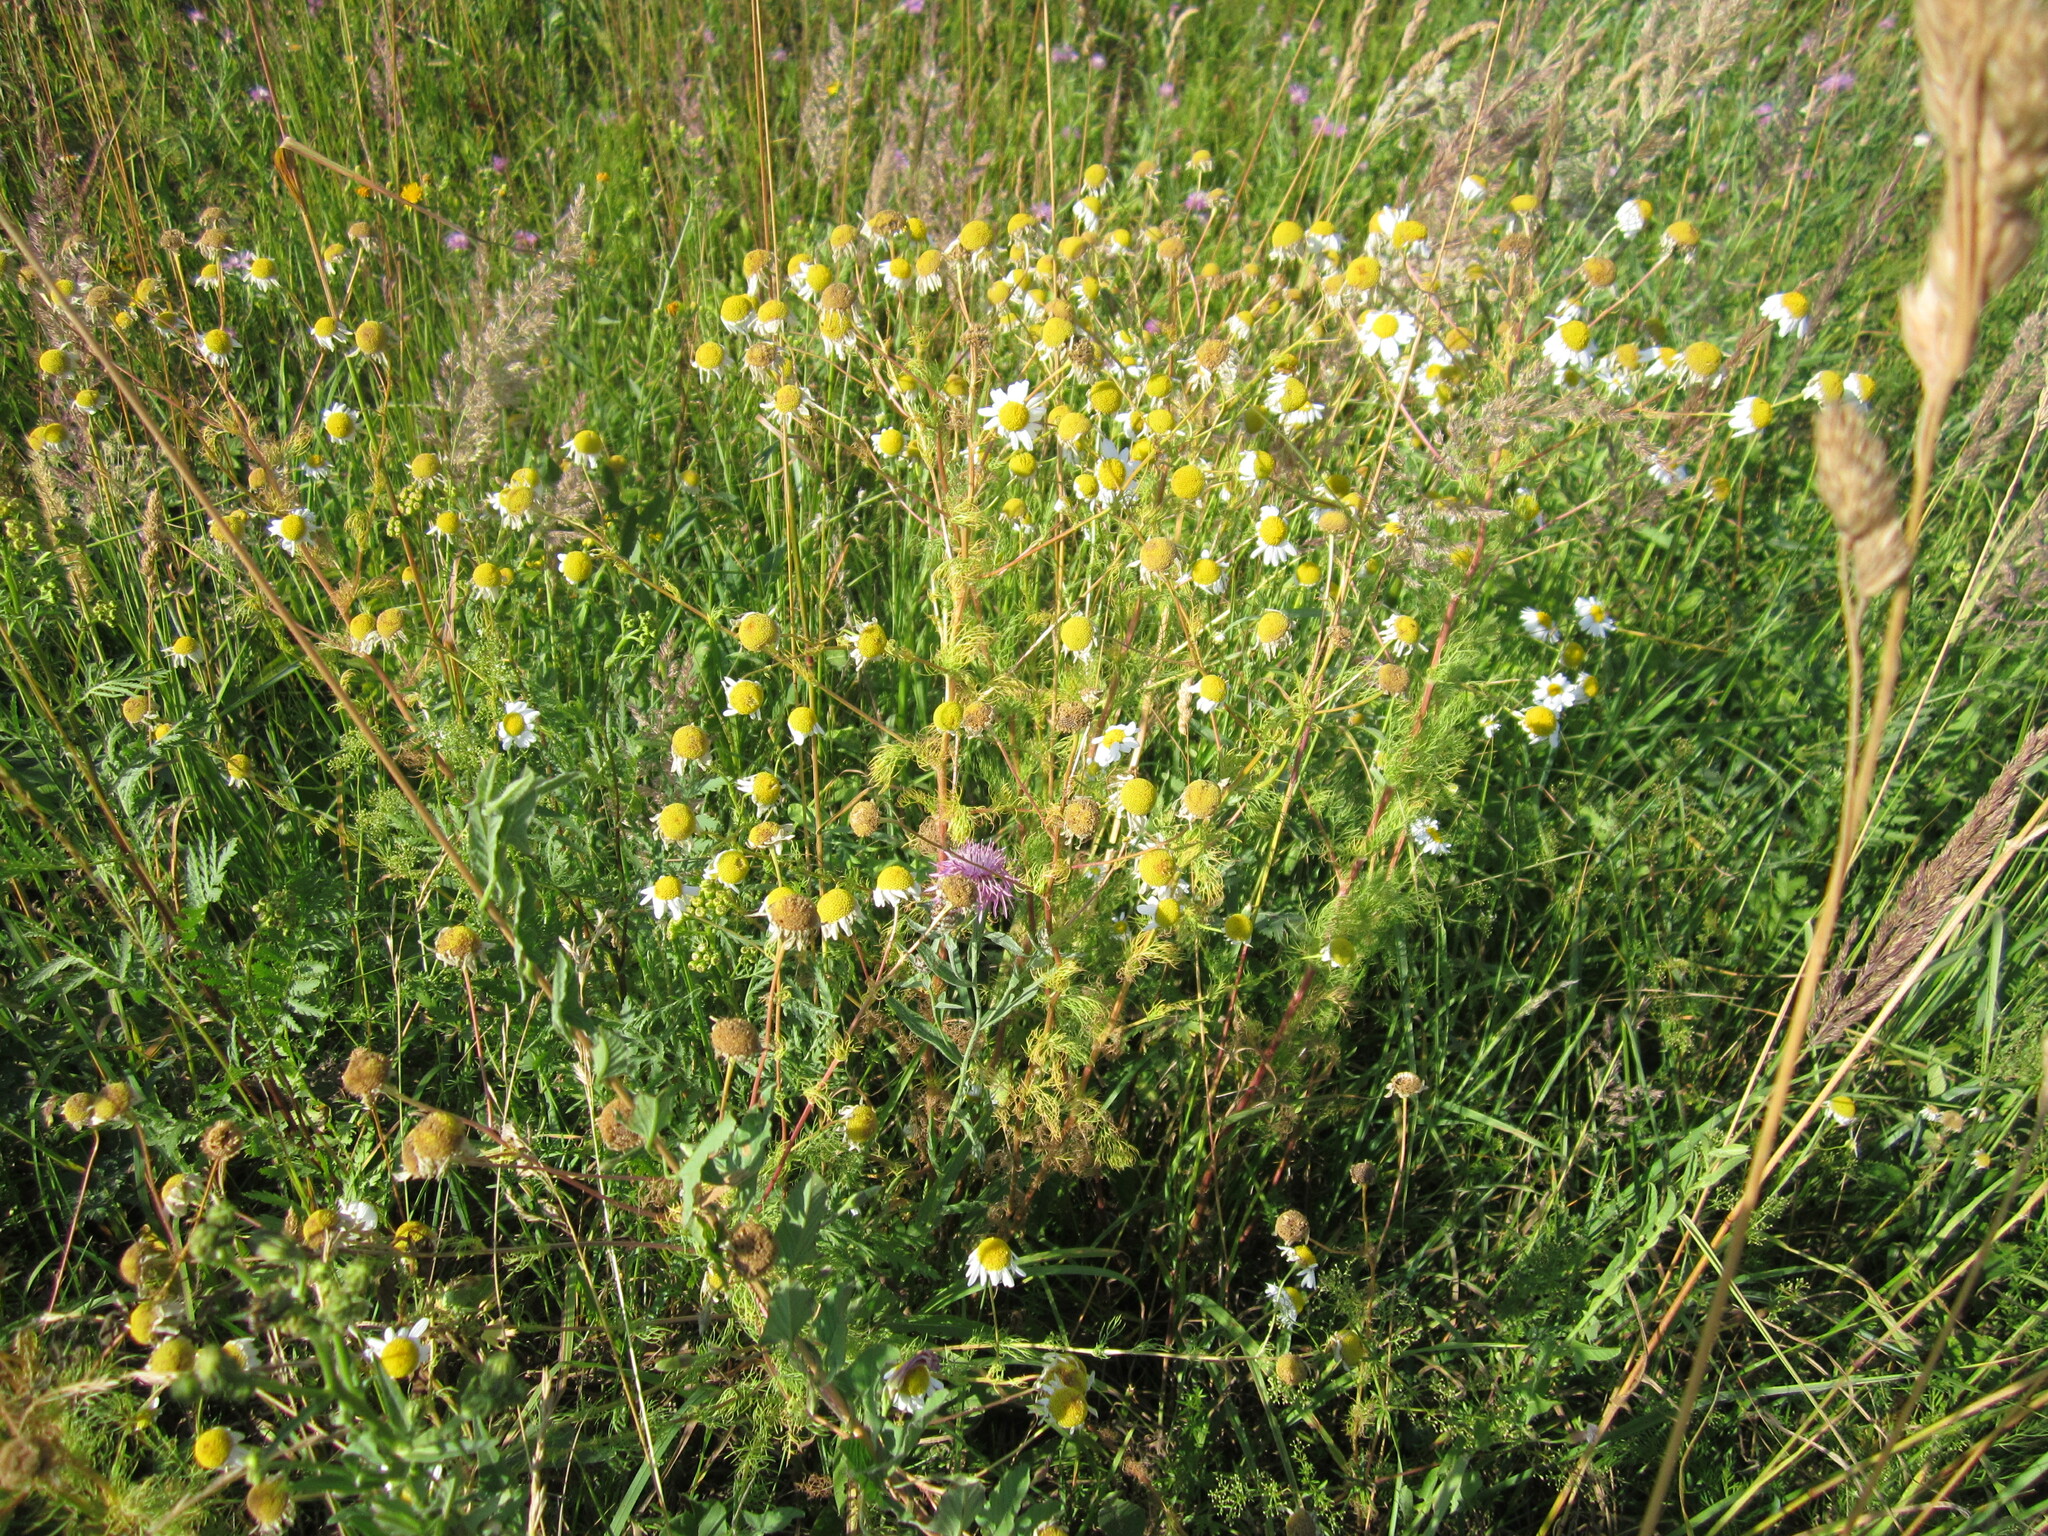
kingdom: Plantae
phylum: Tracheophyta
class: Magnoliopsida
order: Asterales
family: Asteraceae
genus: Tripleurospermum
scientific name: Tripleurospermum inodorum
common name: Scentless mayweed
